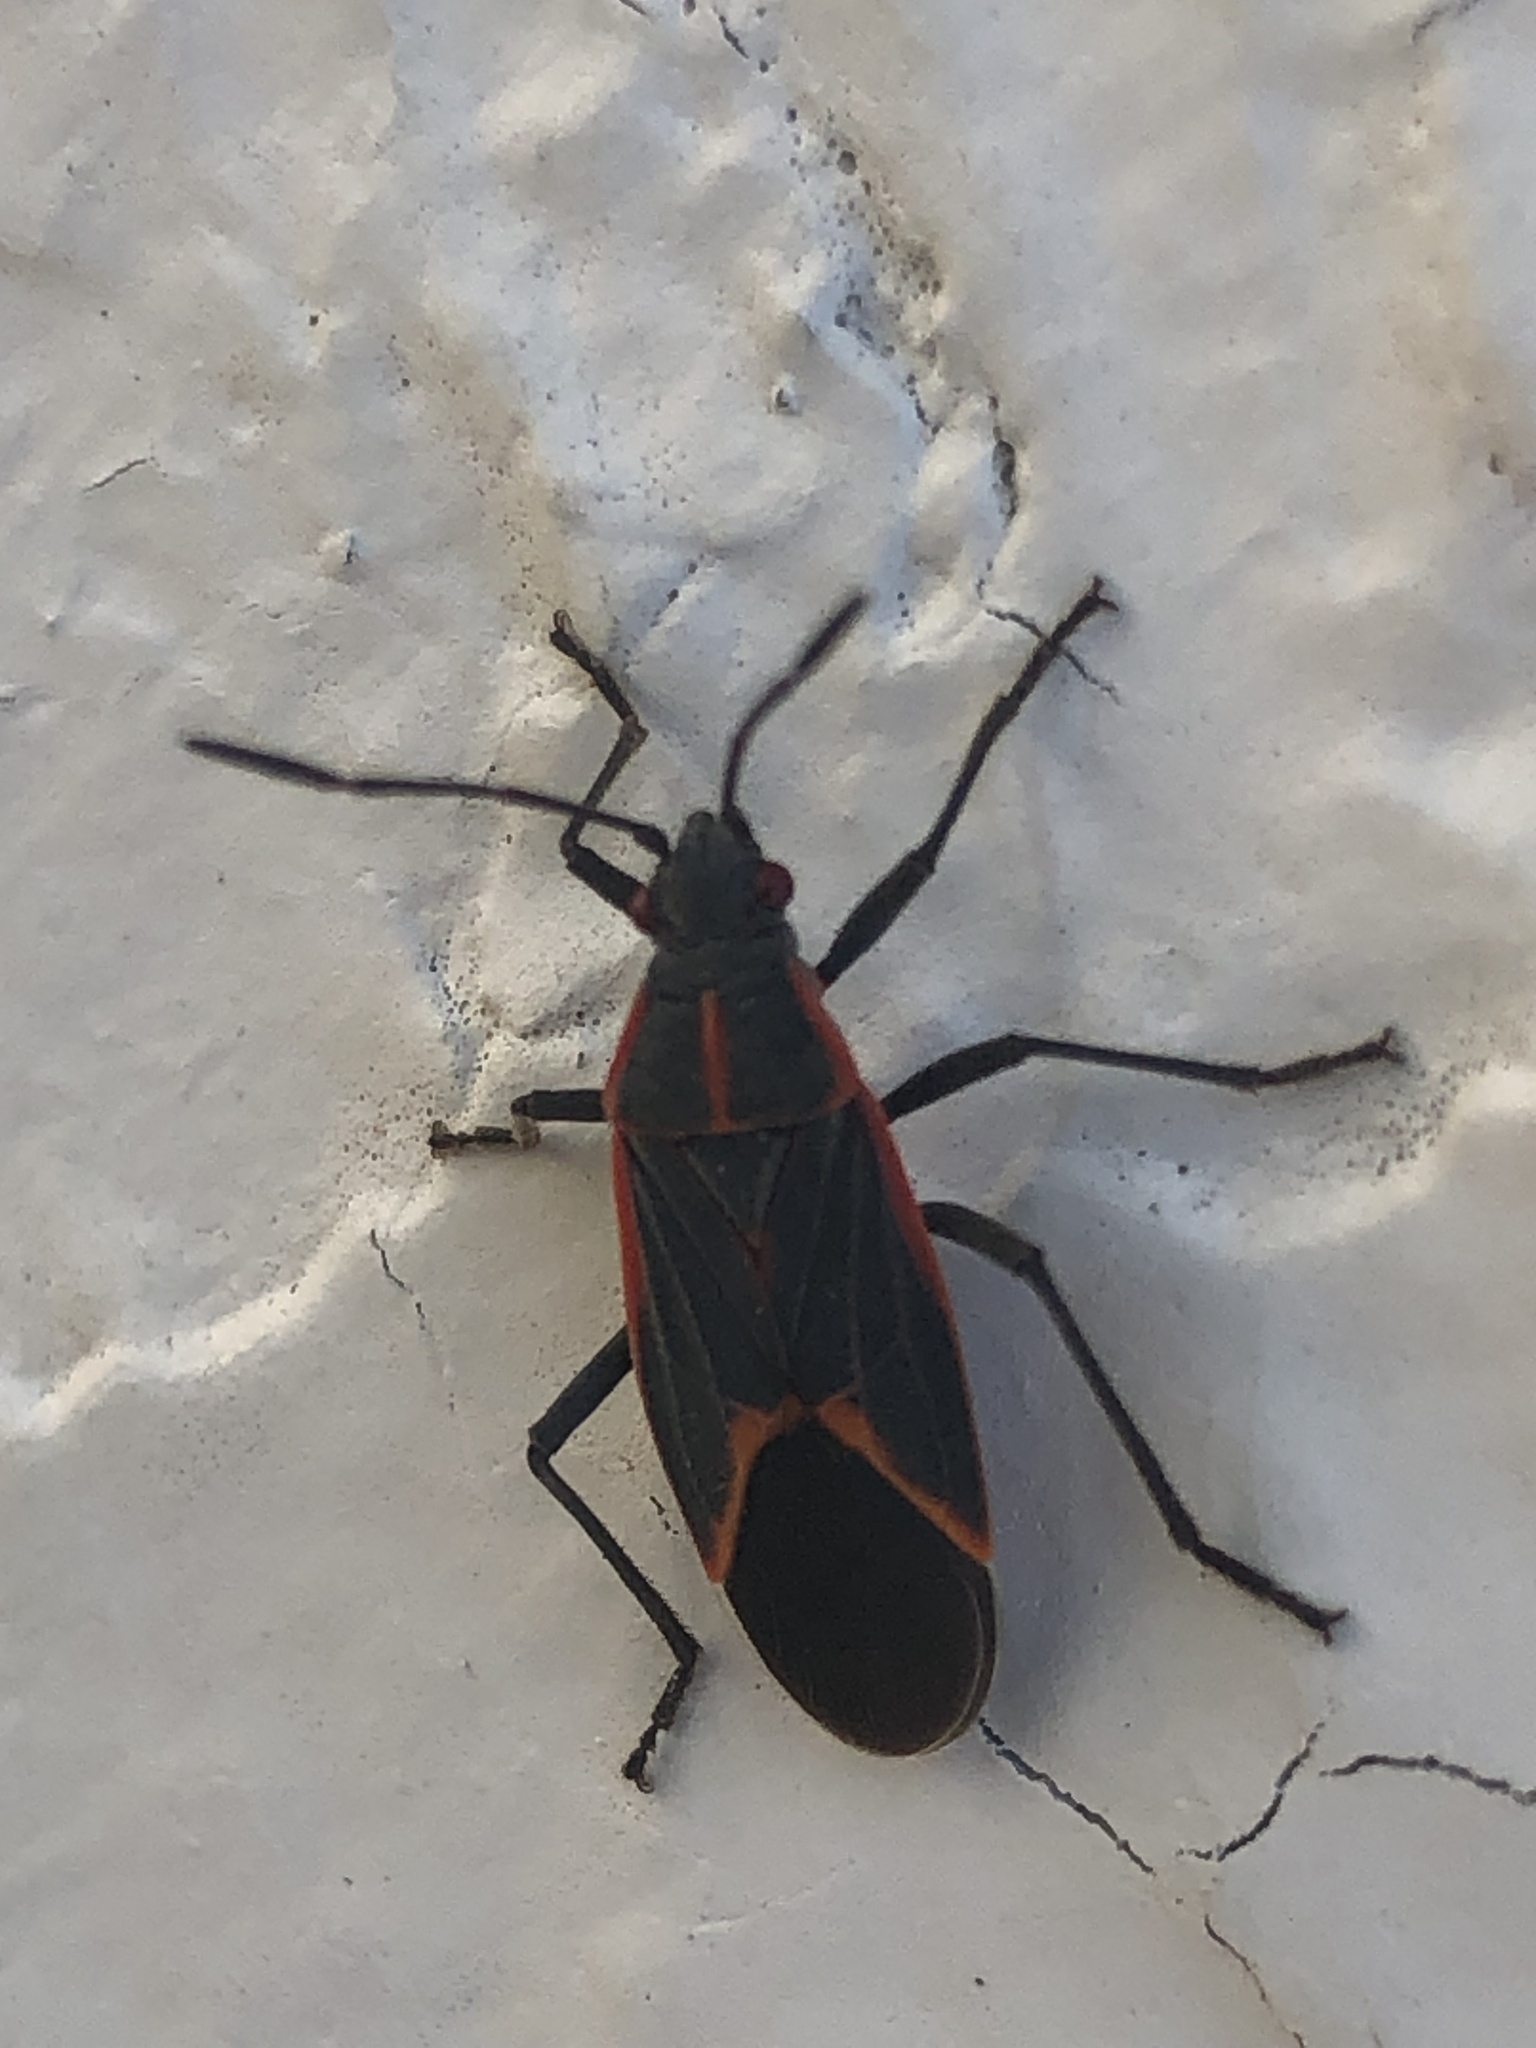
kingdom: Animalia
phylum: Arthropoda
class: Insecta
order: Hemiptera
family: Rhopalidae
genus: Boisea
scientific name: Boisea trivittata
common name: Boxelder bug
